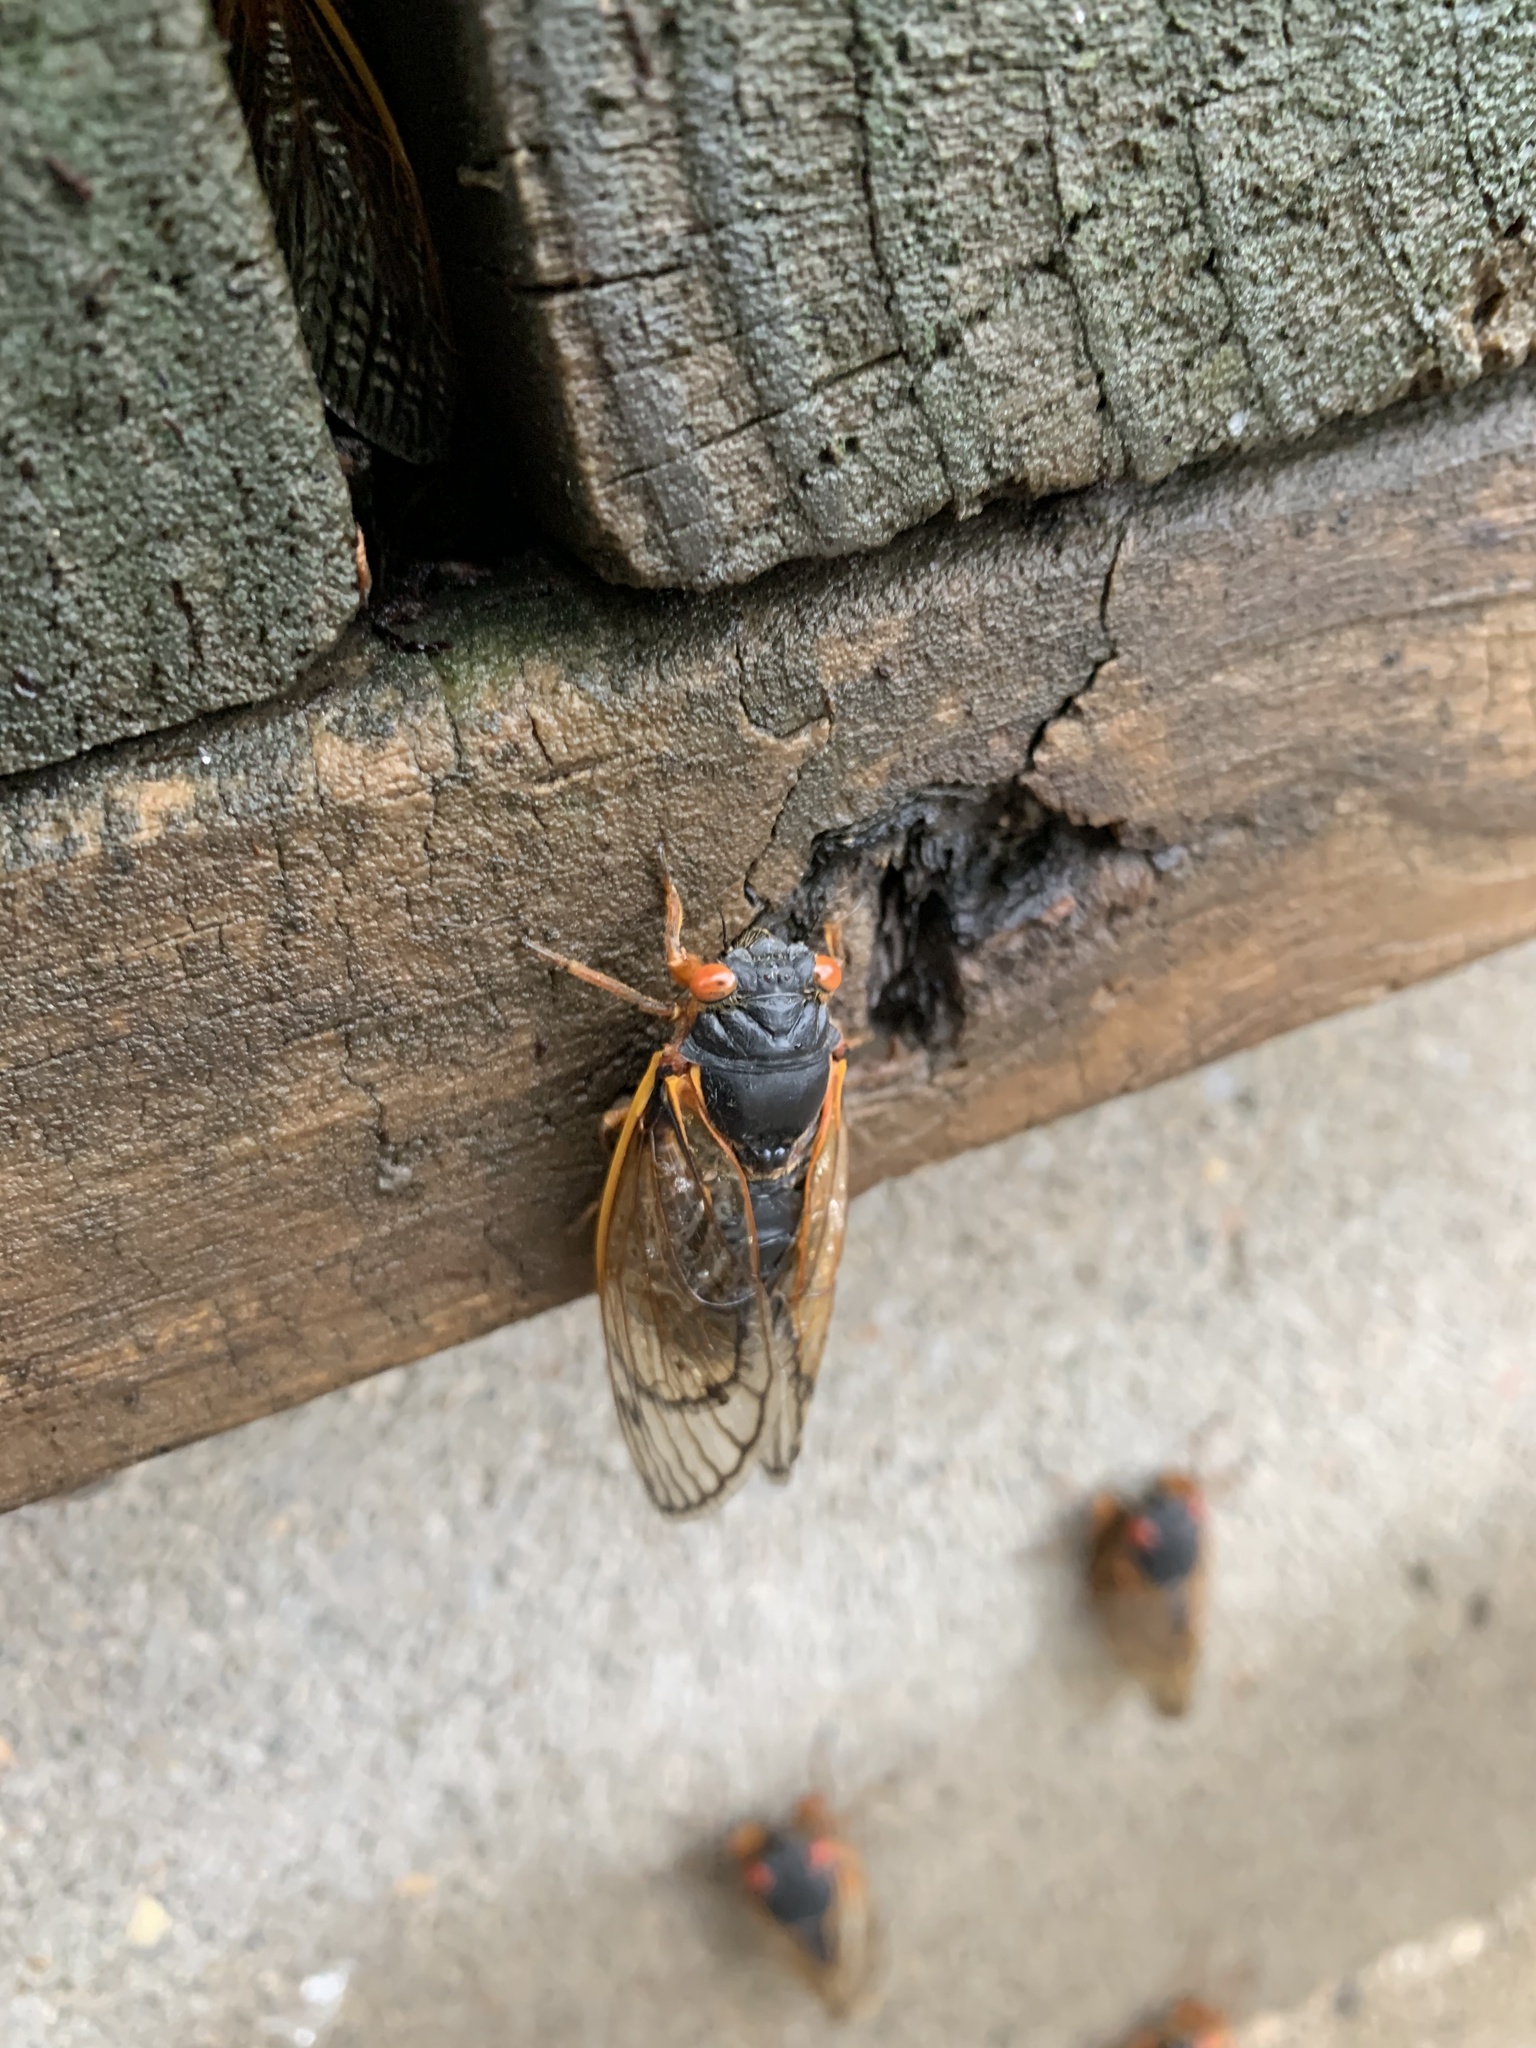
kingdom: Animalia
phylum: Arthropoda
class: Insecta
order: Hemiptera
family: Cicadidae
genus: Magicicada
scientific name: Magicicada septendecim
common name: Periodical cicada
